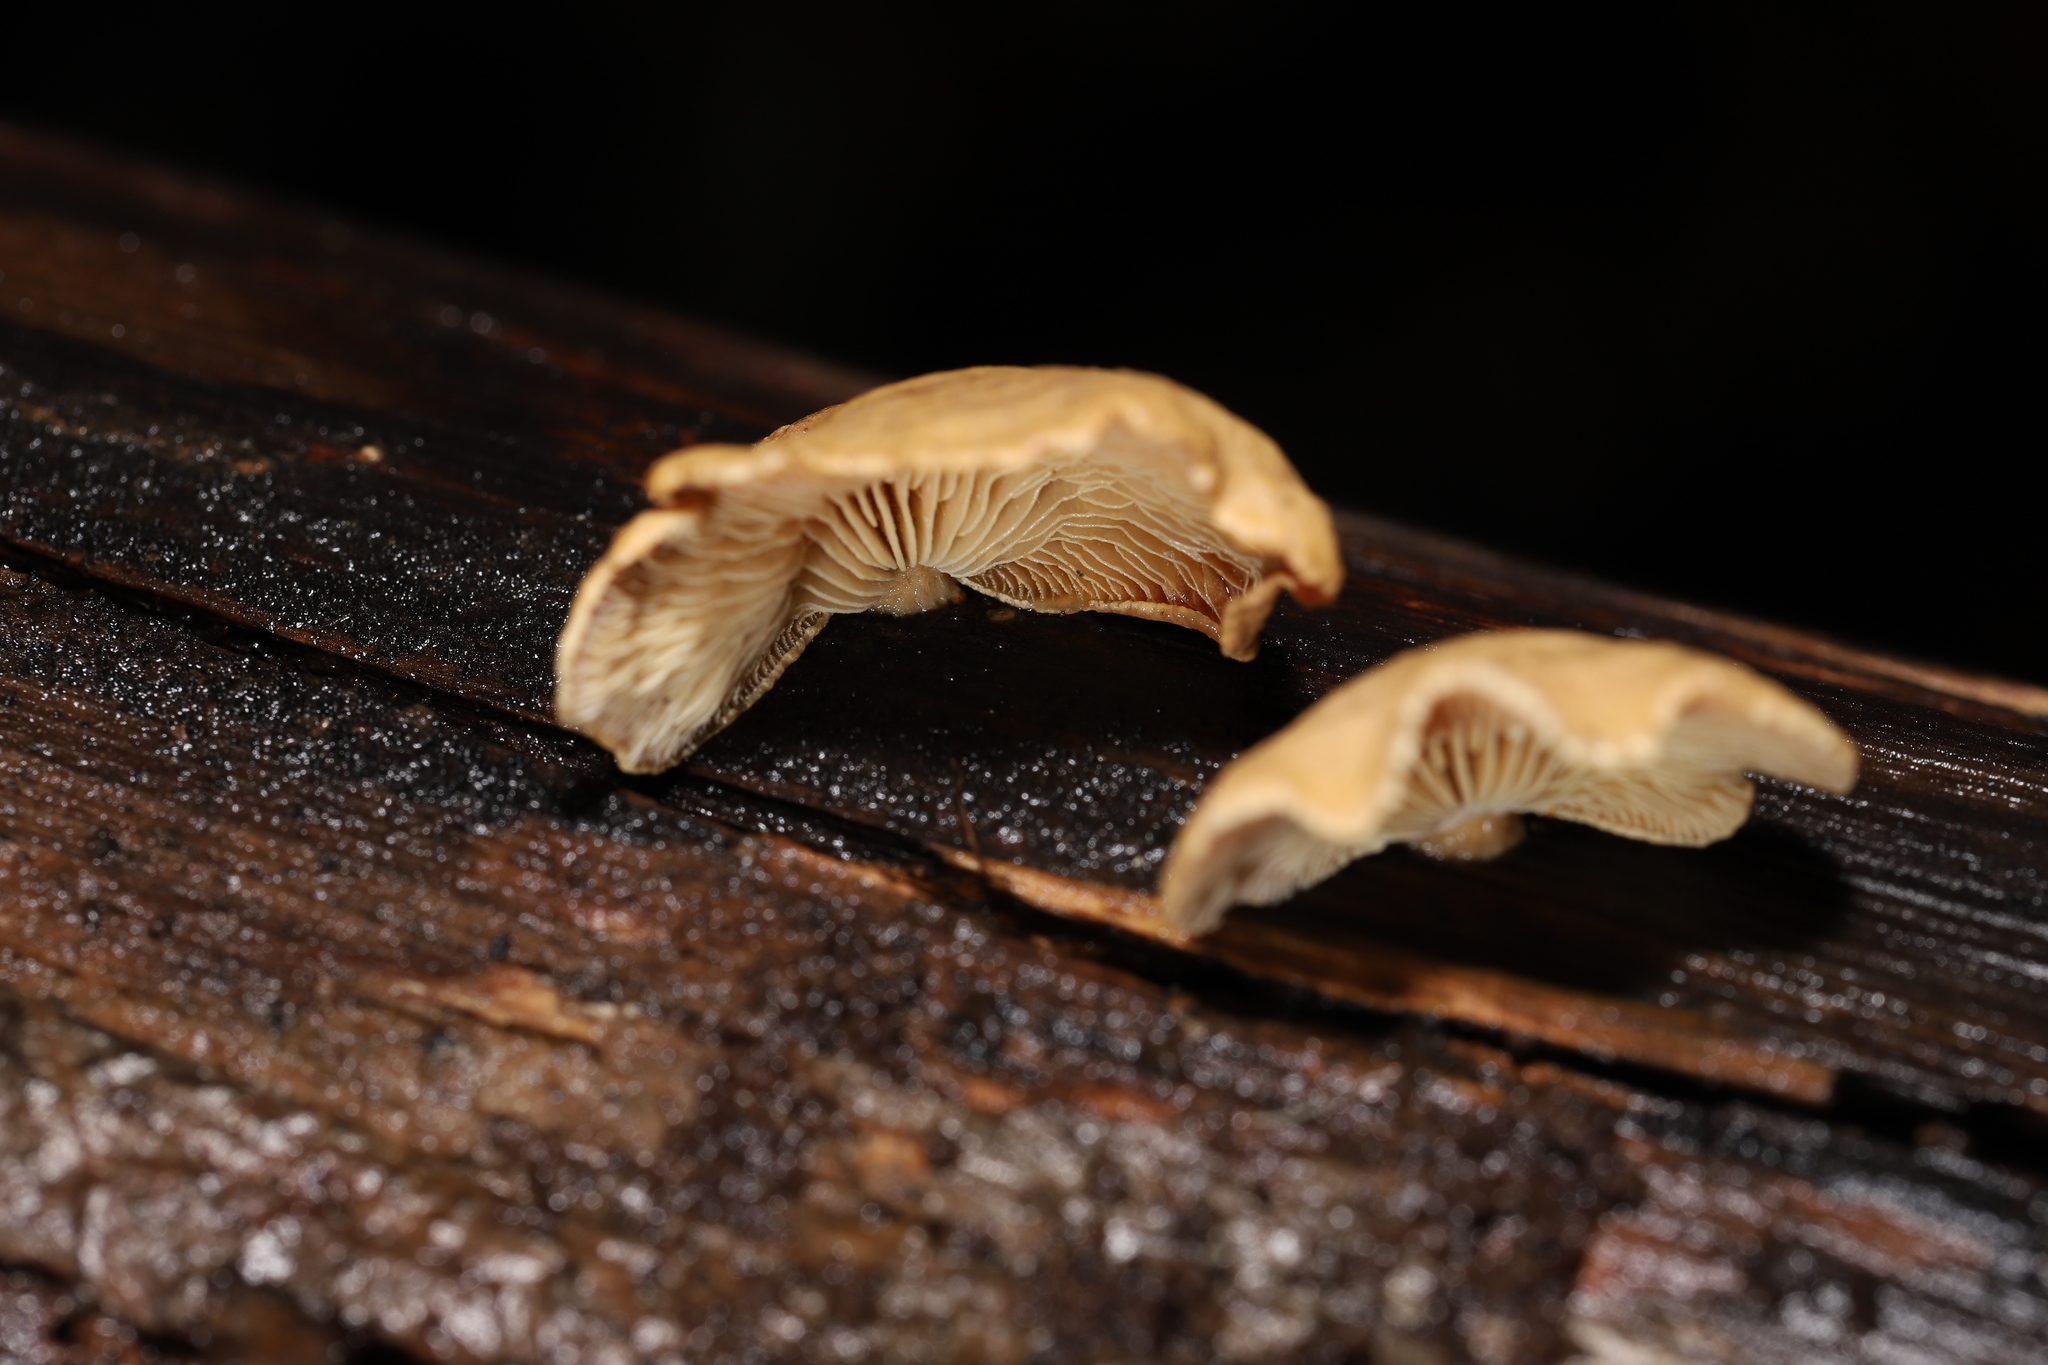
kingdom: Fungi
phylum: Basidiomycota
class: Agaricomycetes
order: Agaricales
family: Mycenaceae
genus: Panellus
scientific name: Panellus stipticus
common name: Bitter oysterling
